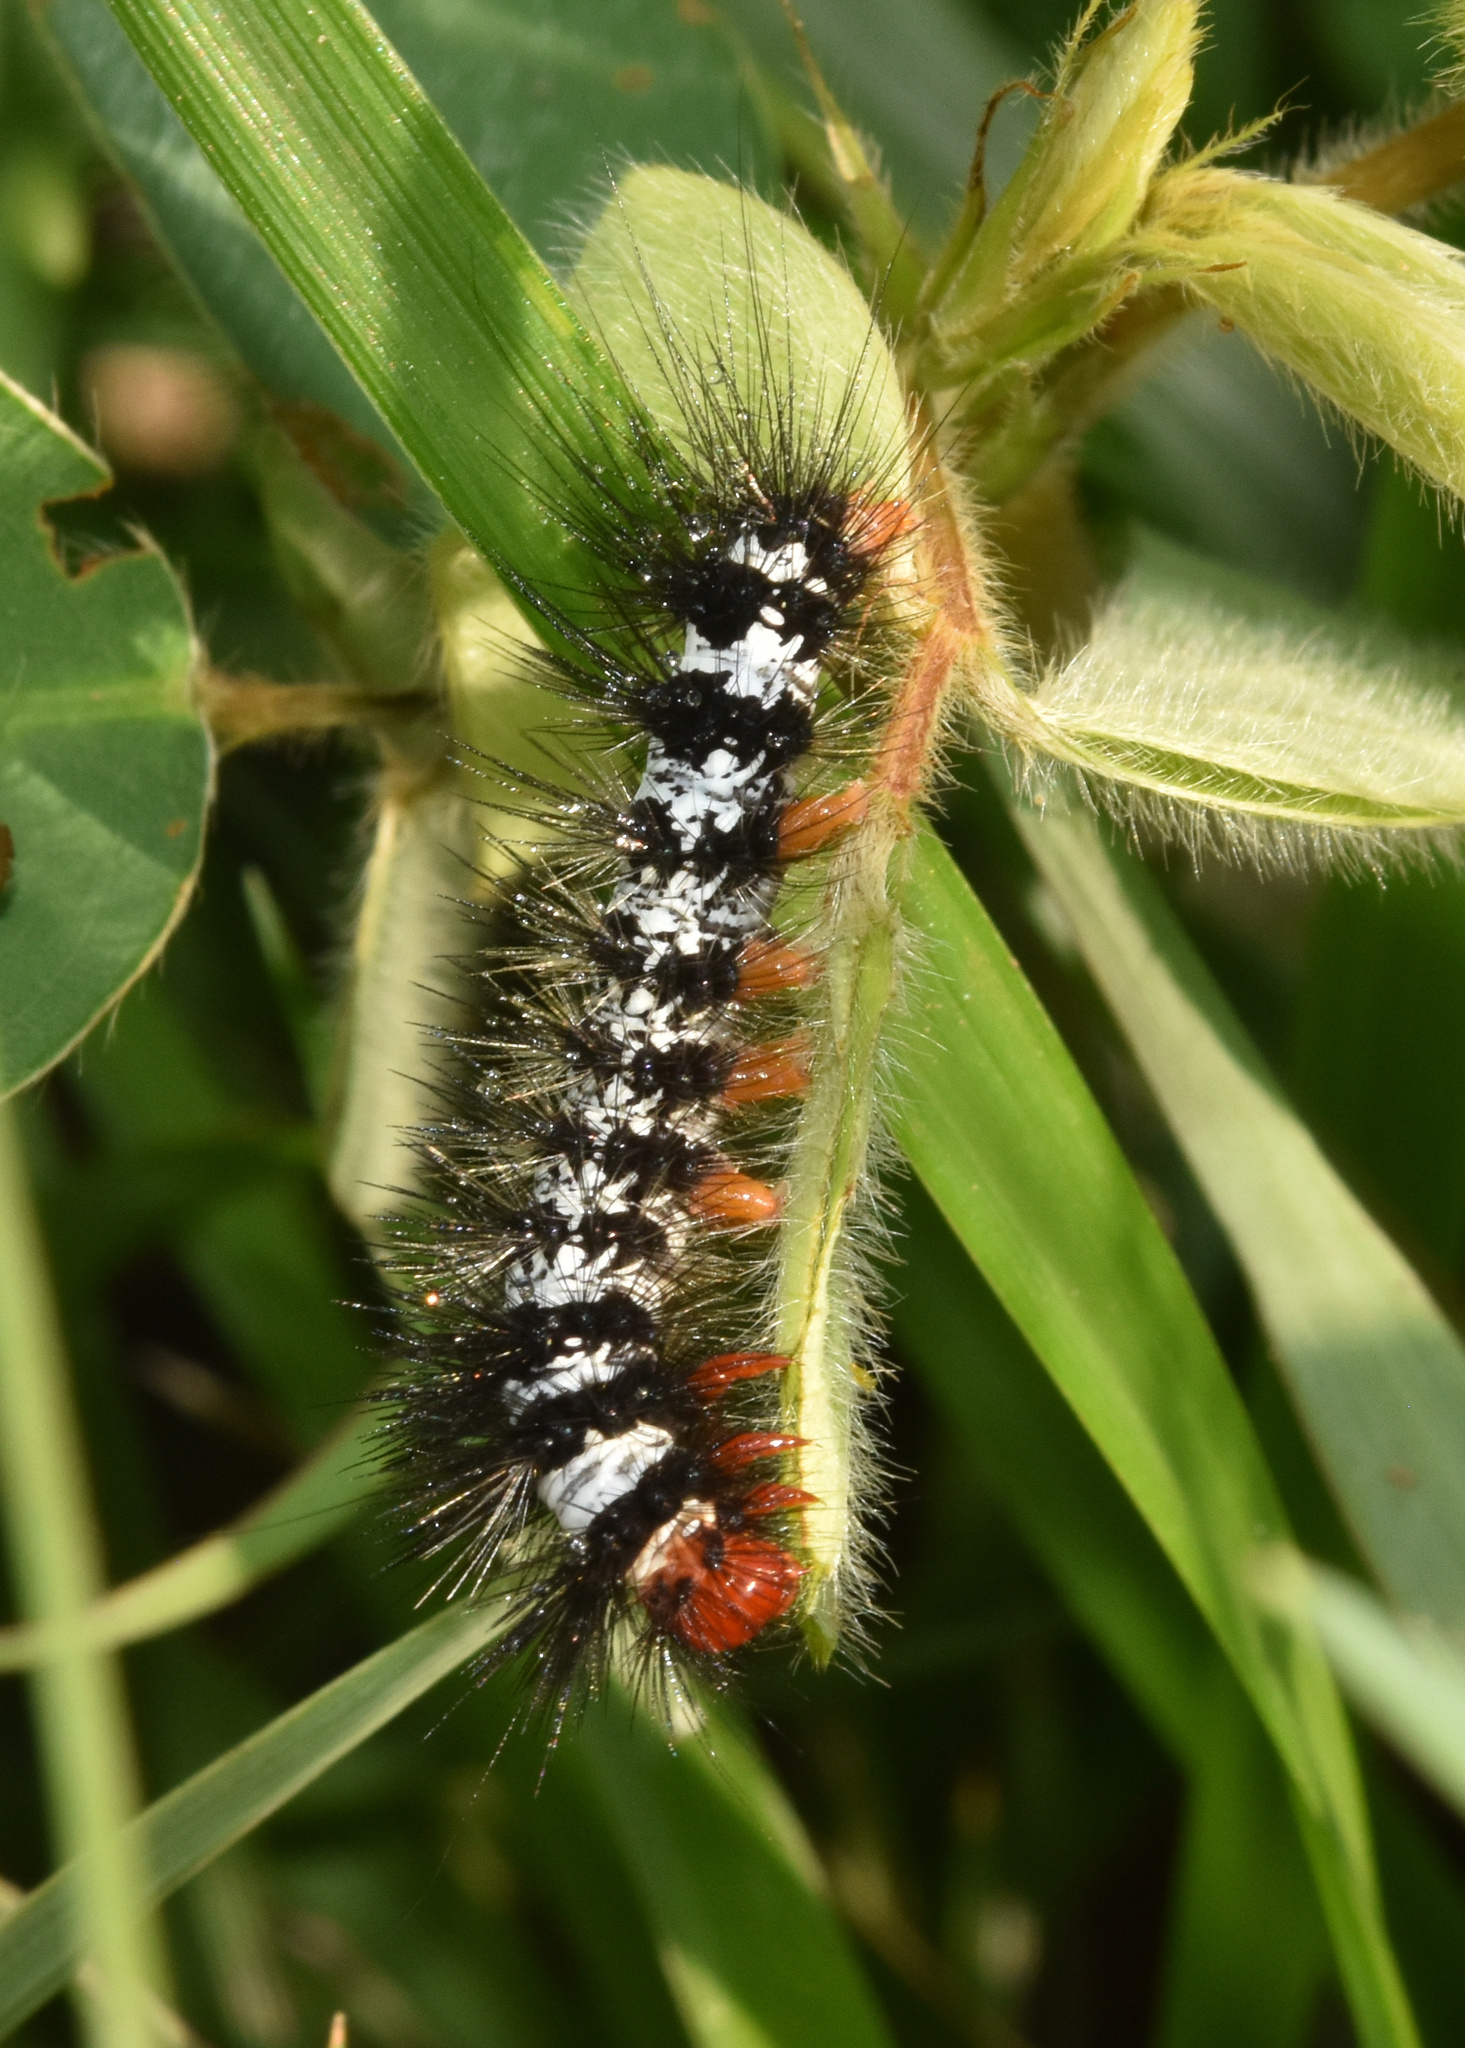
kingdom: Animalia
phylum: Arthropoda
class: Insecta
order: Lepidoptera
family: Erebidae
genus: Afromurzinia
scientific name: Afromurzinia lutescens
